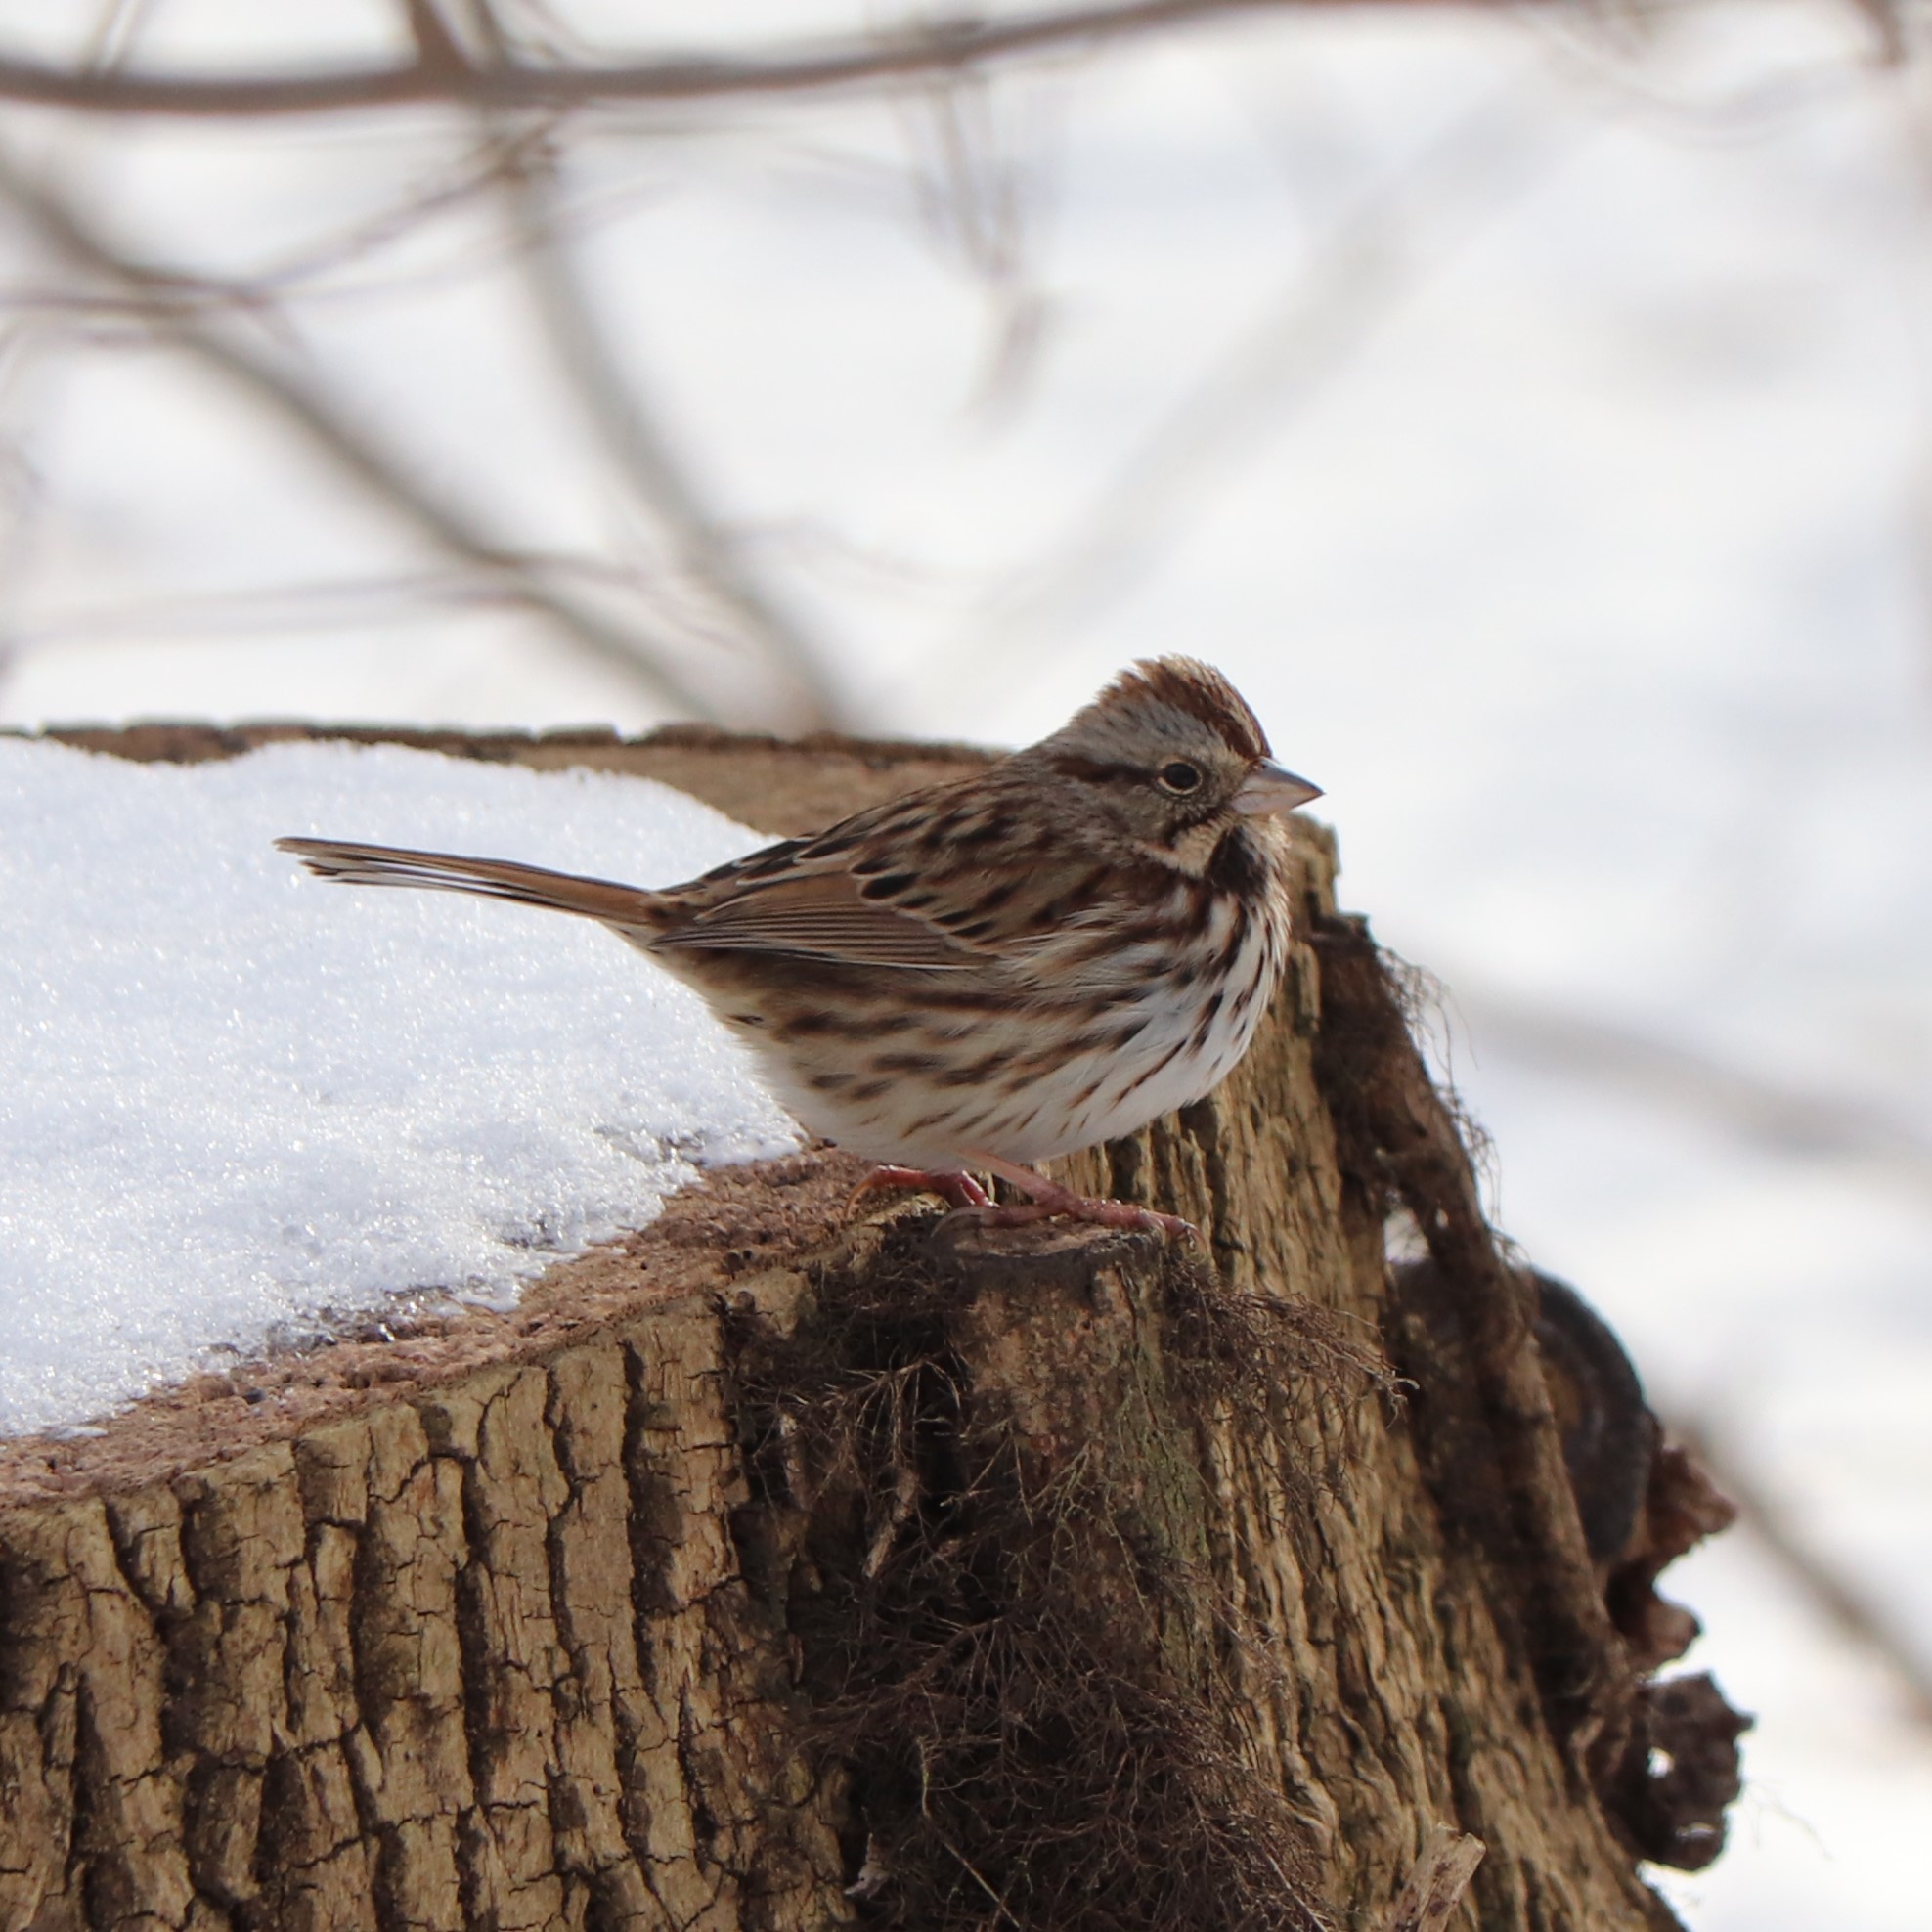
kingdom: Animalia
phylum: Chordata
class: Aves
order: Passeriformes
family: Passerellidae
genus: Melospiza
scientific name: Melospiza melodia
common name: Song sparrow
